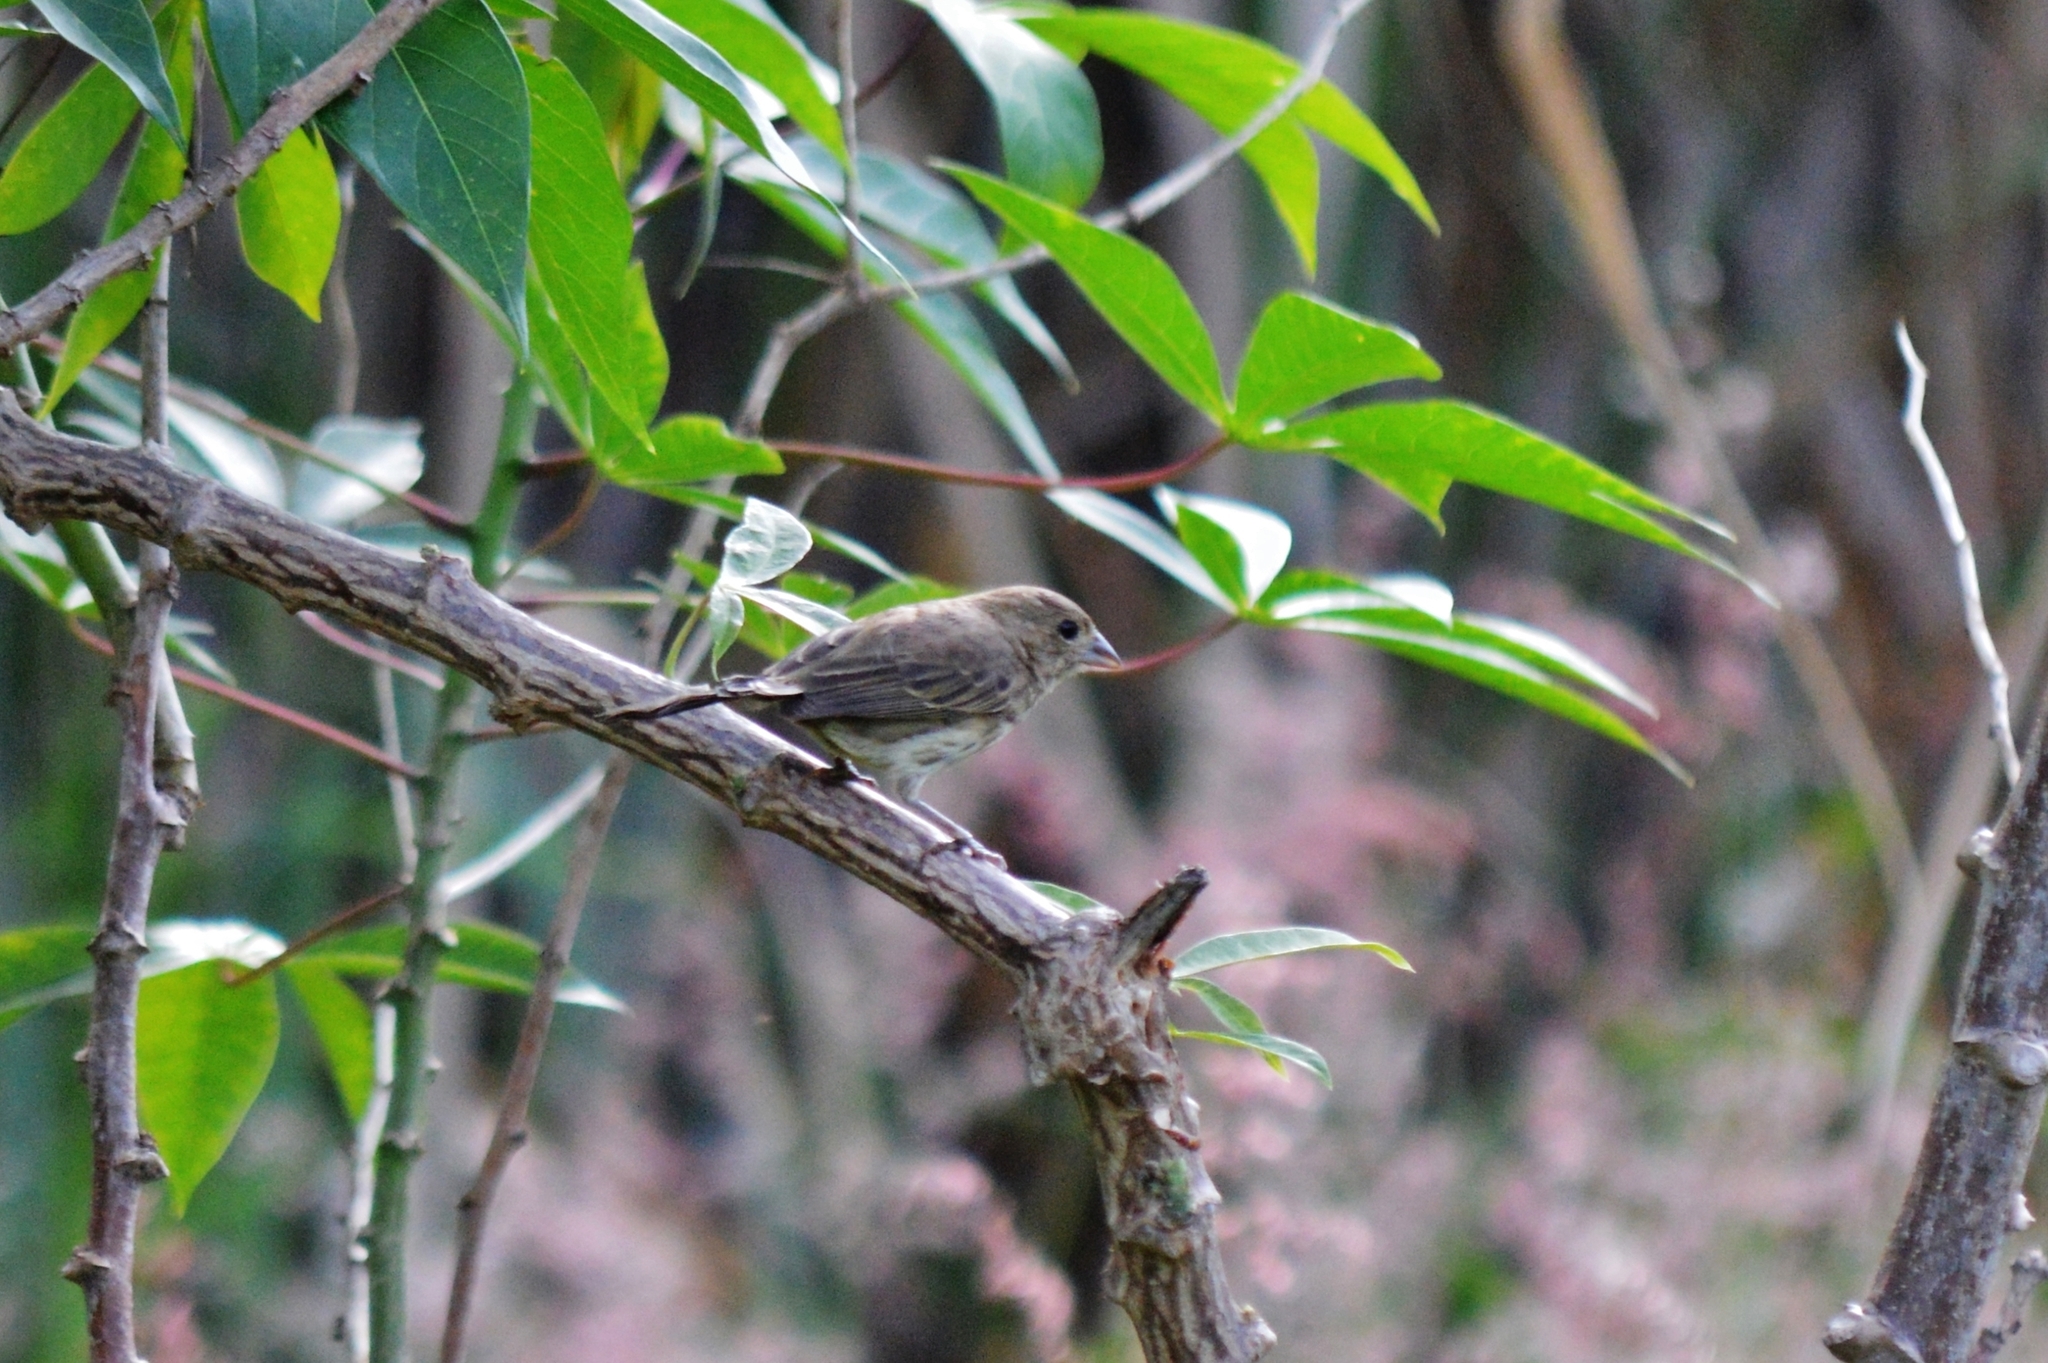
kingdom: Animalia
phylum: Chordata
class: Aves
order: Passeriformes
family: Thraupidae
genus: Volatinia
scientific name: Volatinia jacarina
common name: Blue-black grassquit
